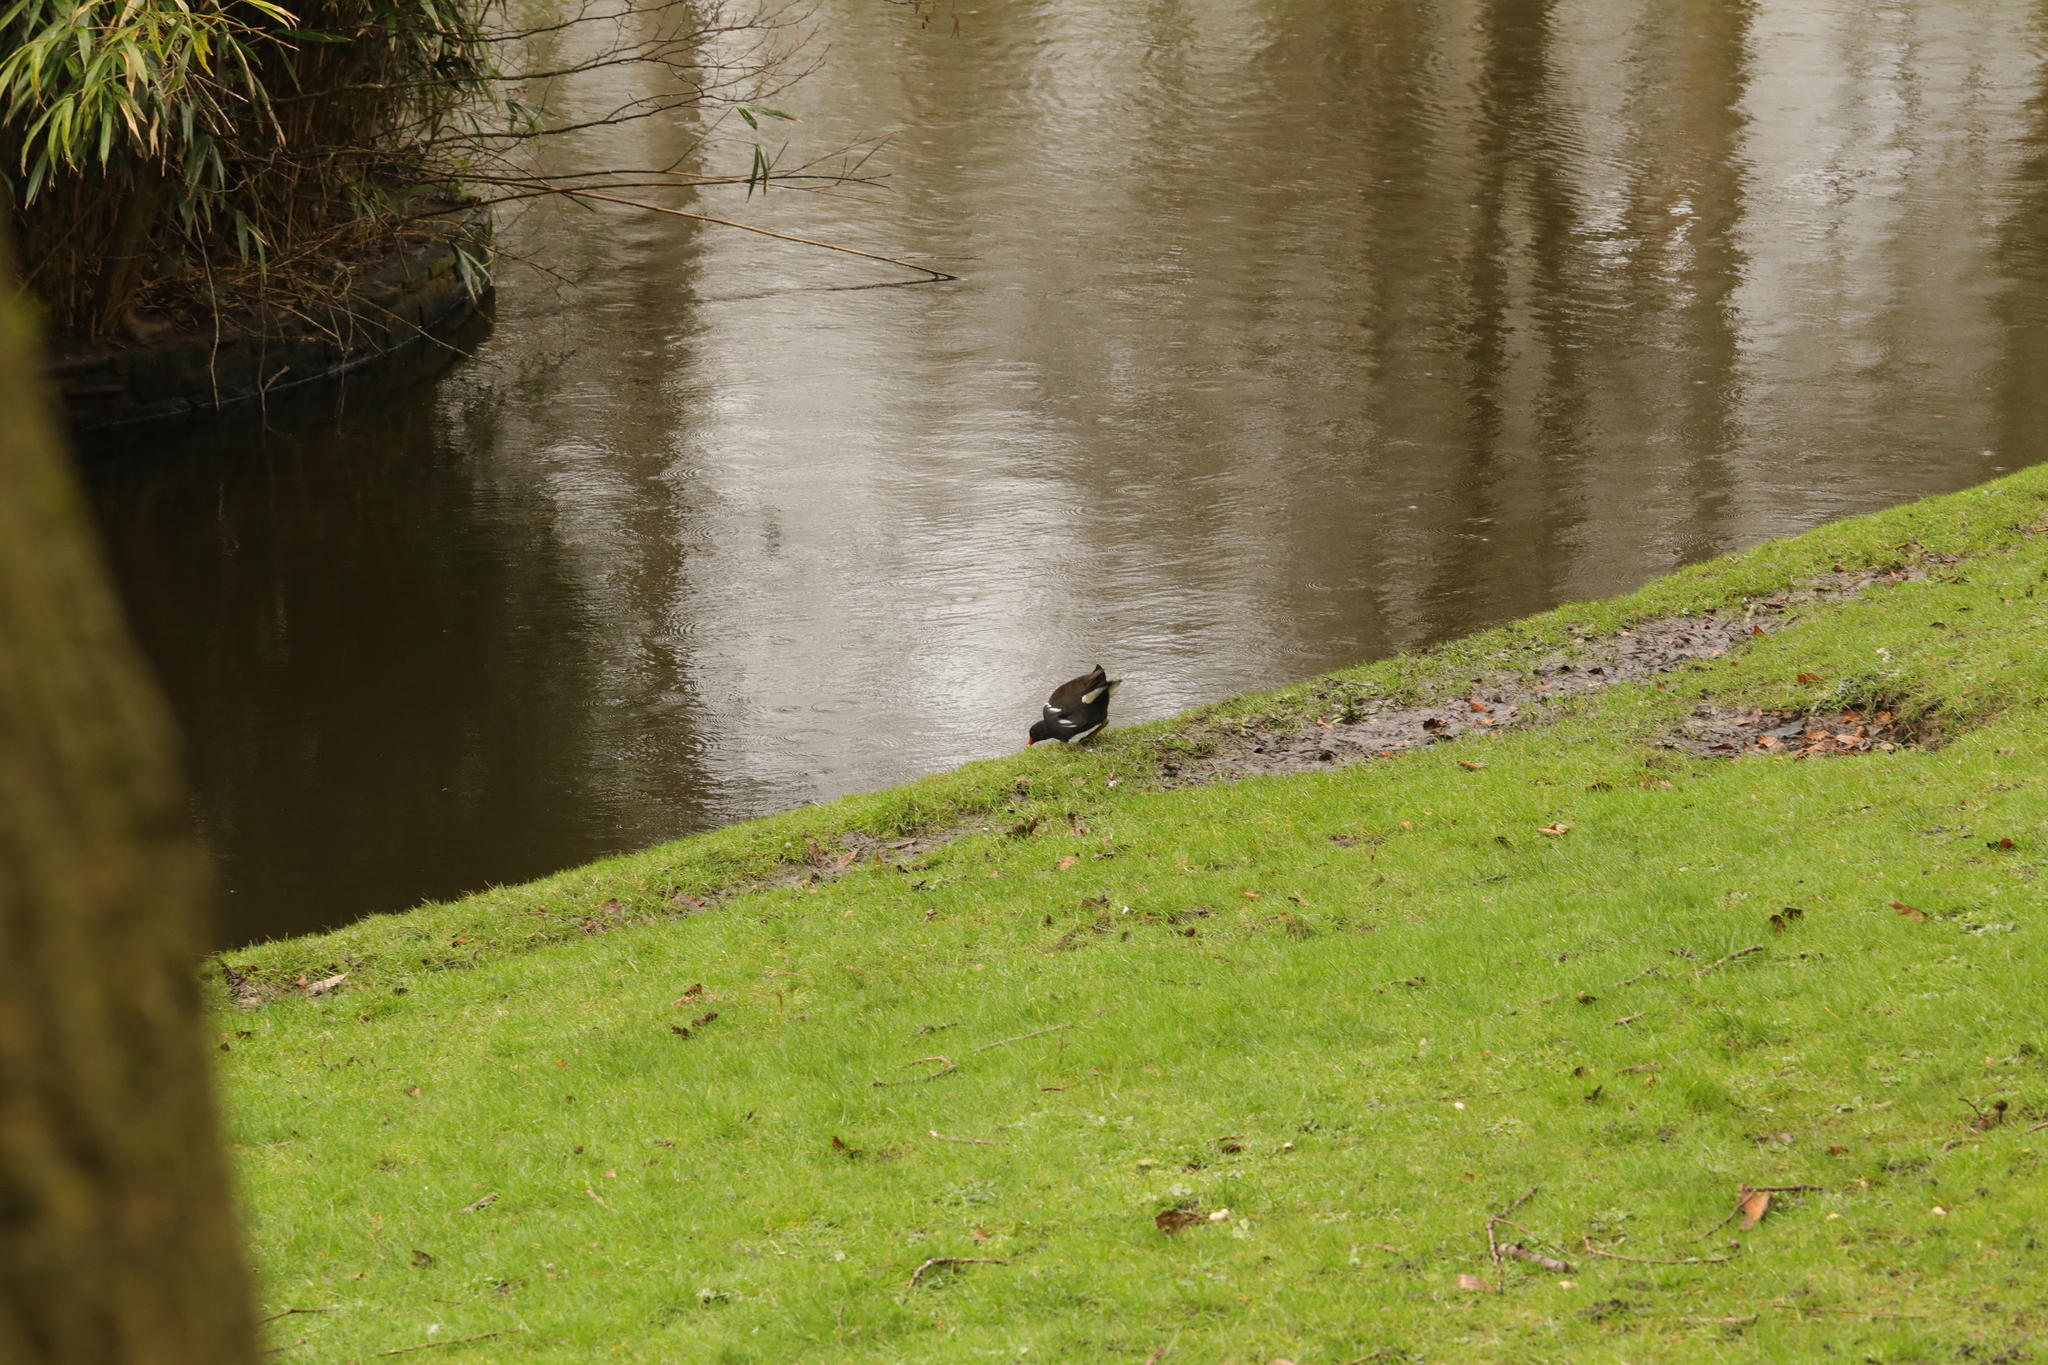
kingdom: Animalia
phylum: Chordata
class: Aves
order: Gruiformes
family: Rallidae
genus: Gallinula
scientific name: Gallinula chloropus
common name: Common moorhen
